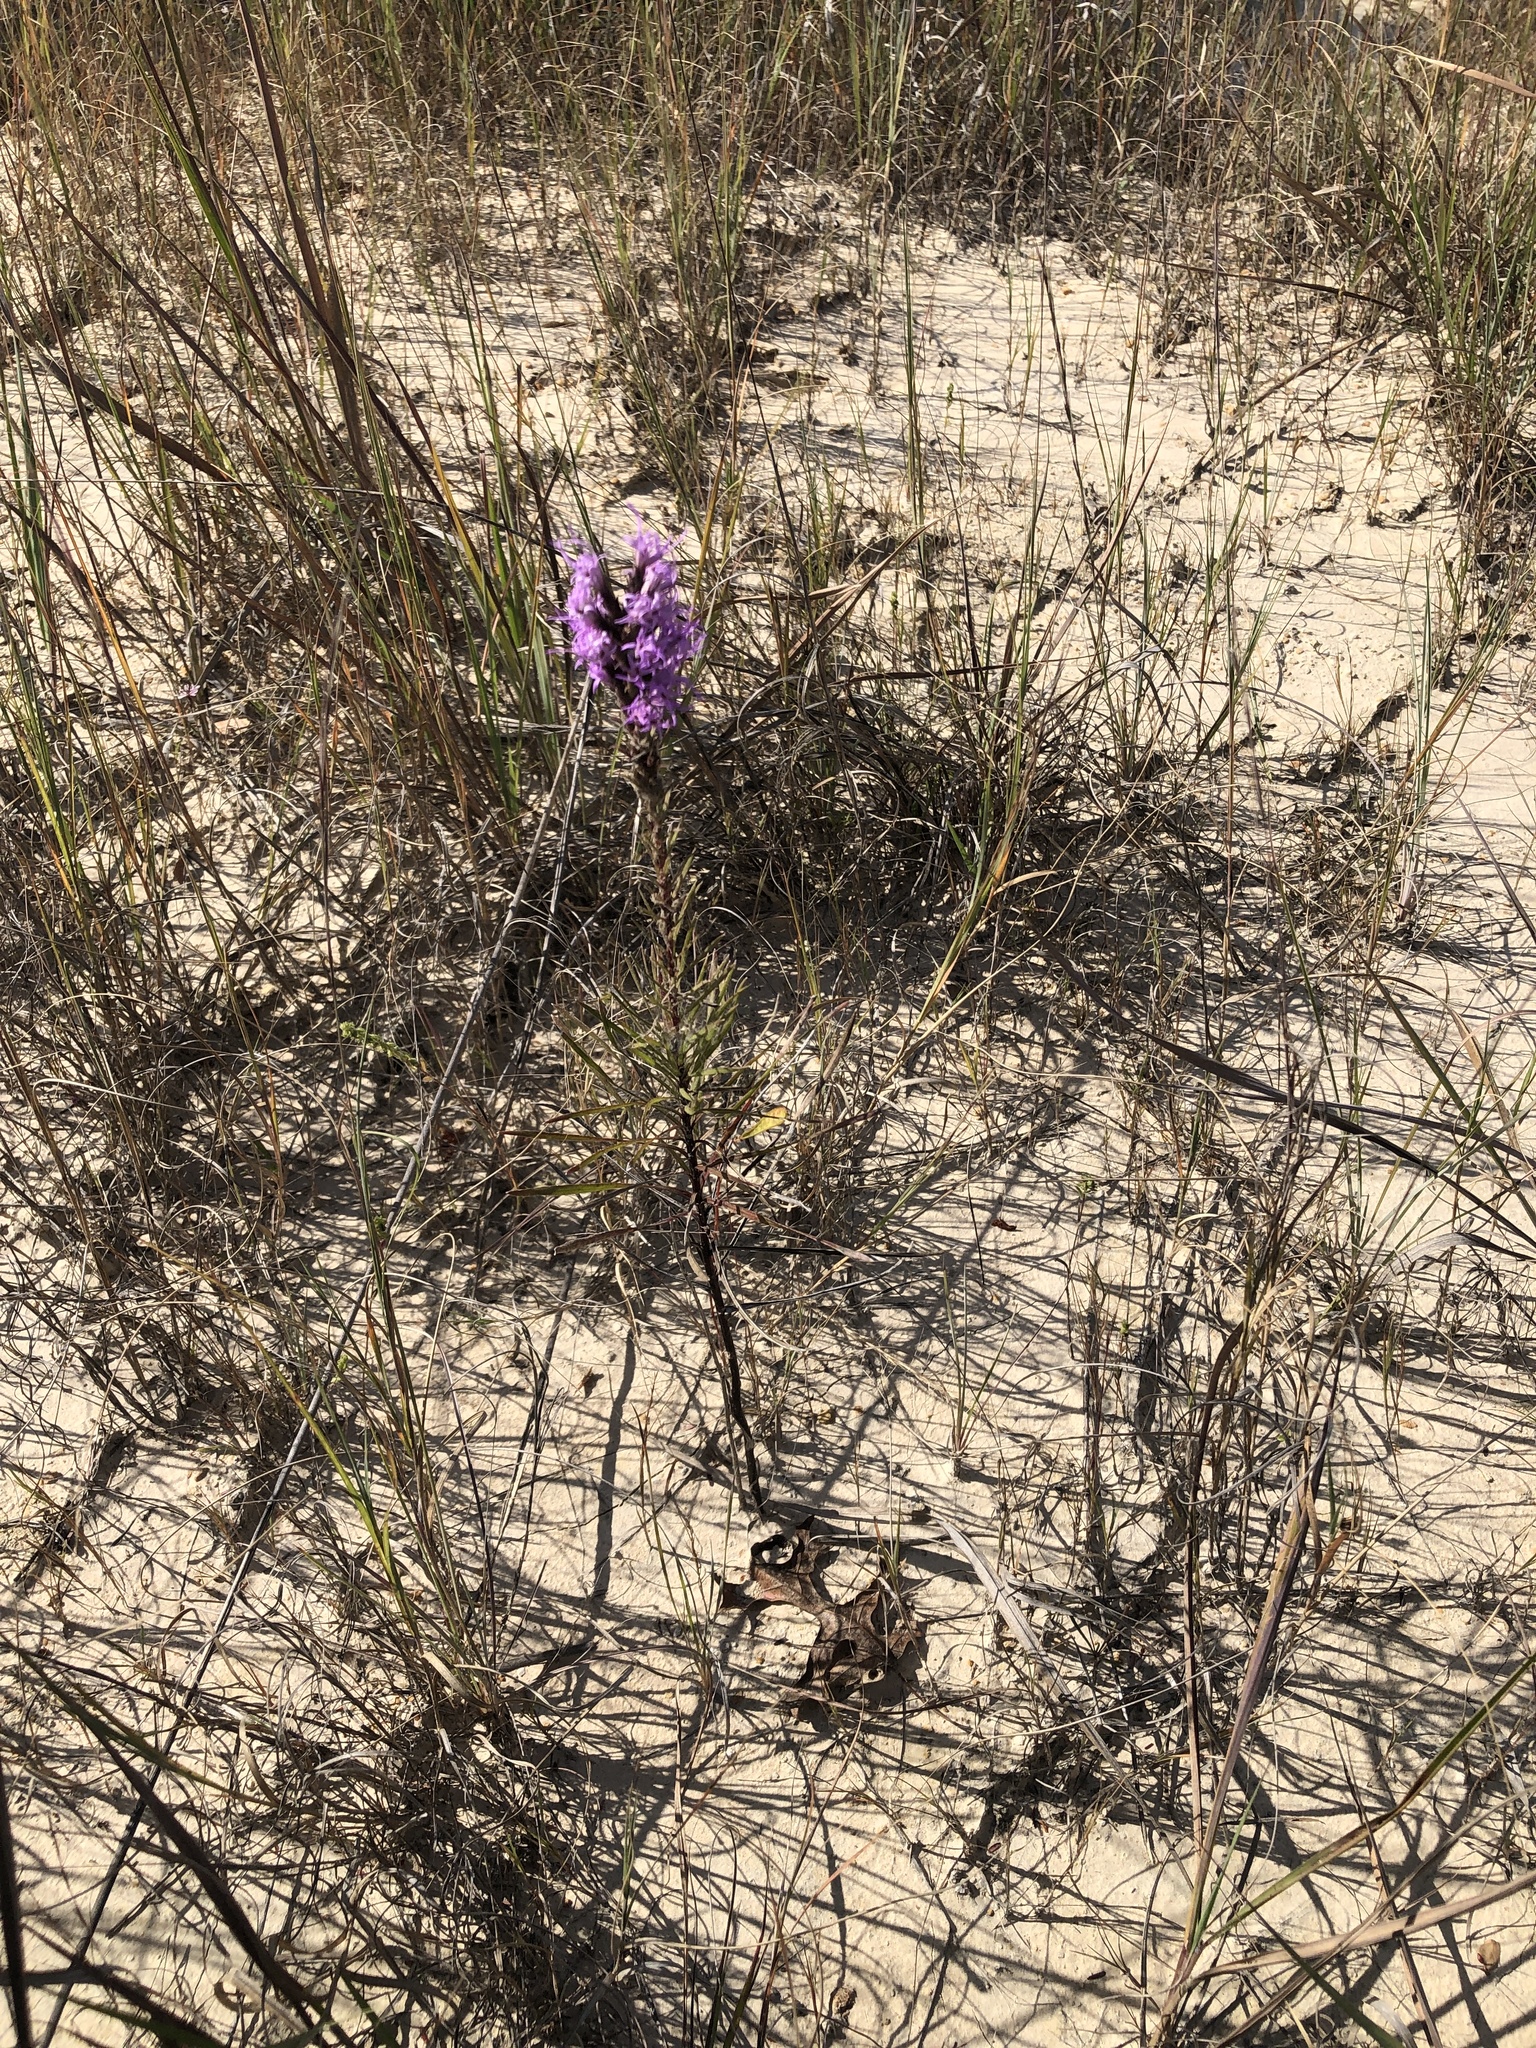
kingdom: Plantae
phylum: Tracheophyta
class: Magnoliopsida
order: Asterales
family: Asteraceae
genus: Liatris
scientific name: Liatris punctata
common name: Dotted gayfeather
